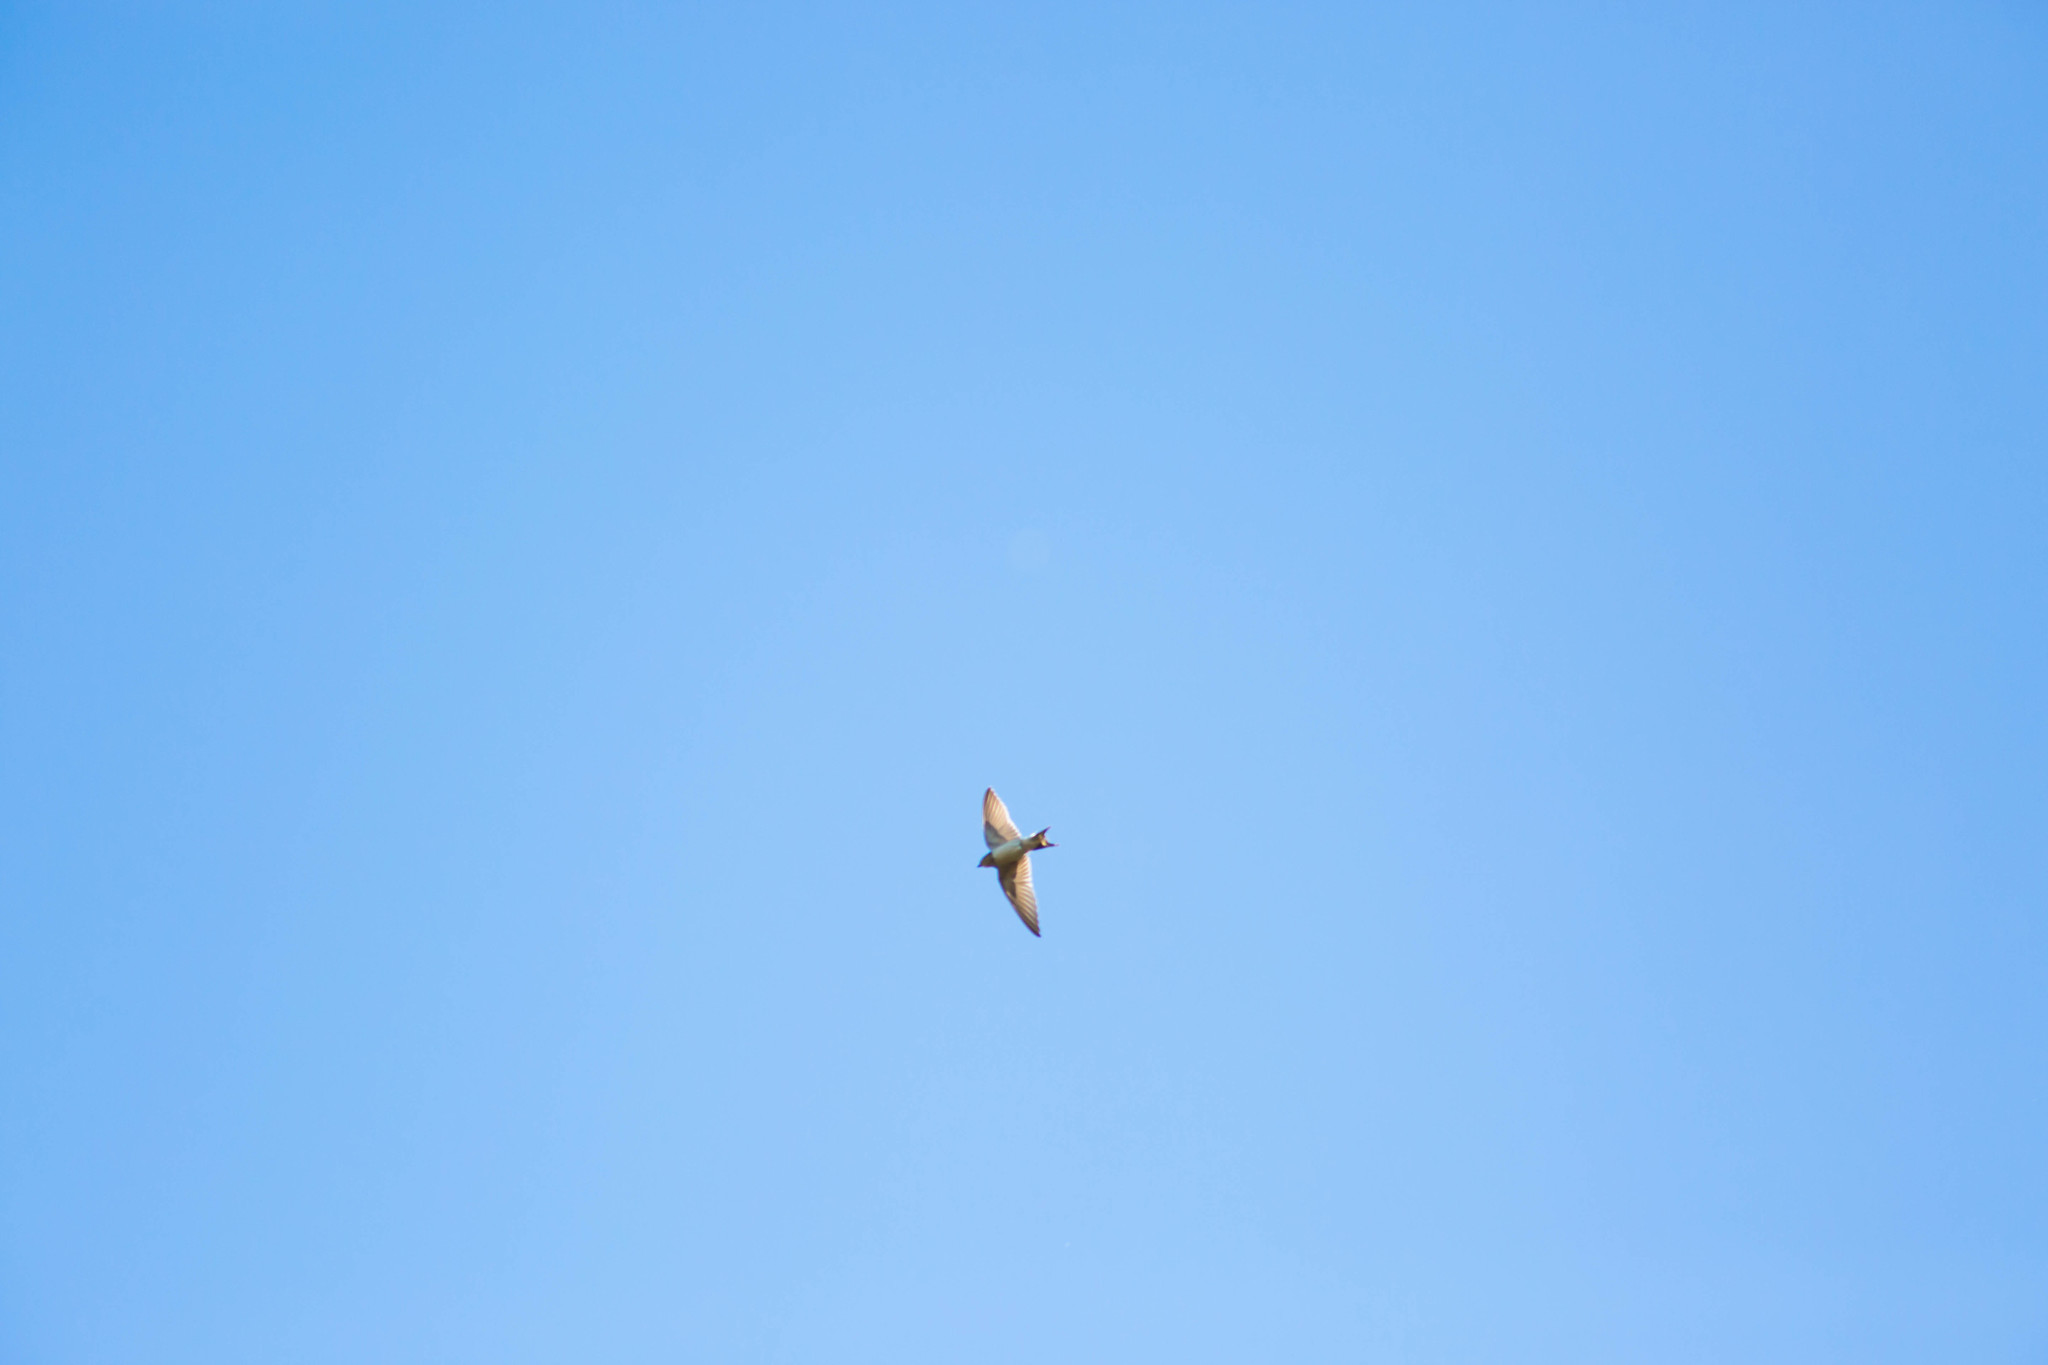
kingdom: Animalia
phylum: Chordata
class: Aves
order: Passeriformes
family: Hirundinidae
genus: Hirundo
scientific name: Hirundo rustica
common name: Barn swallow
